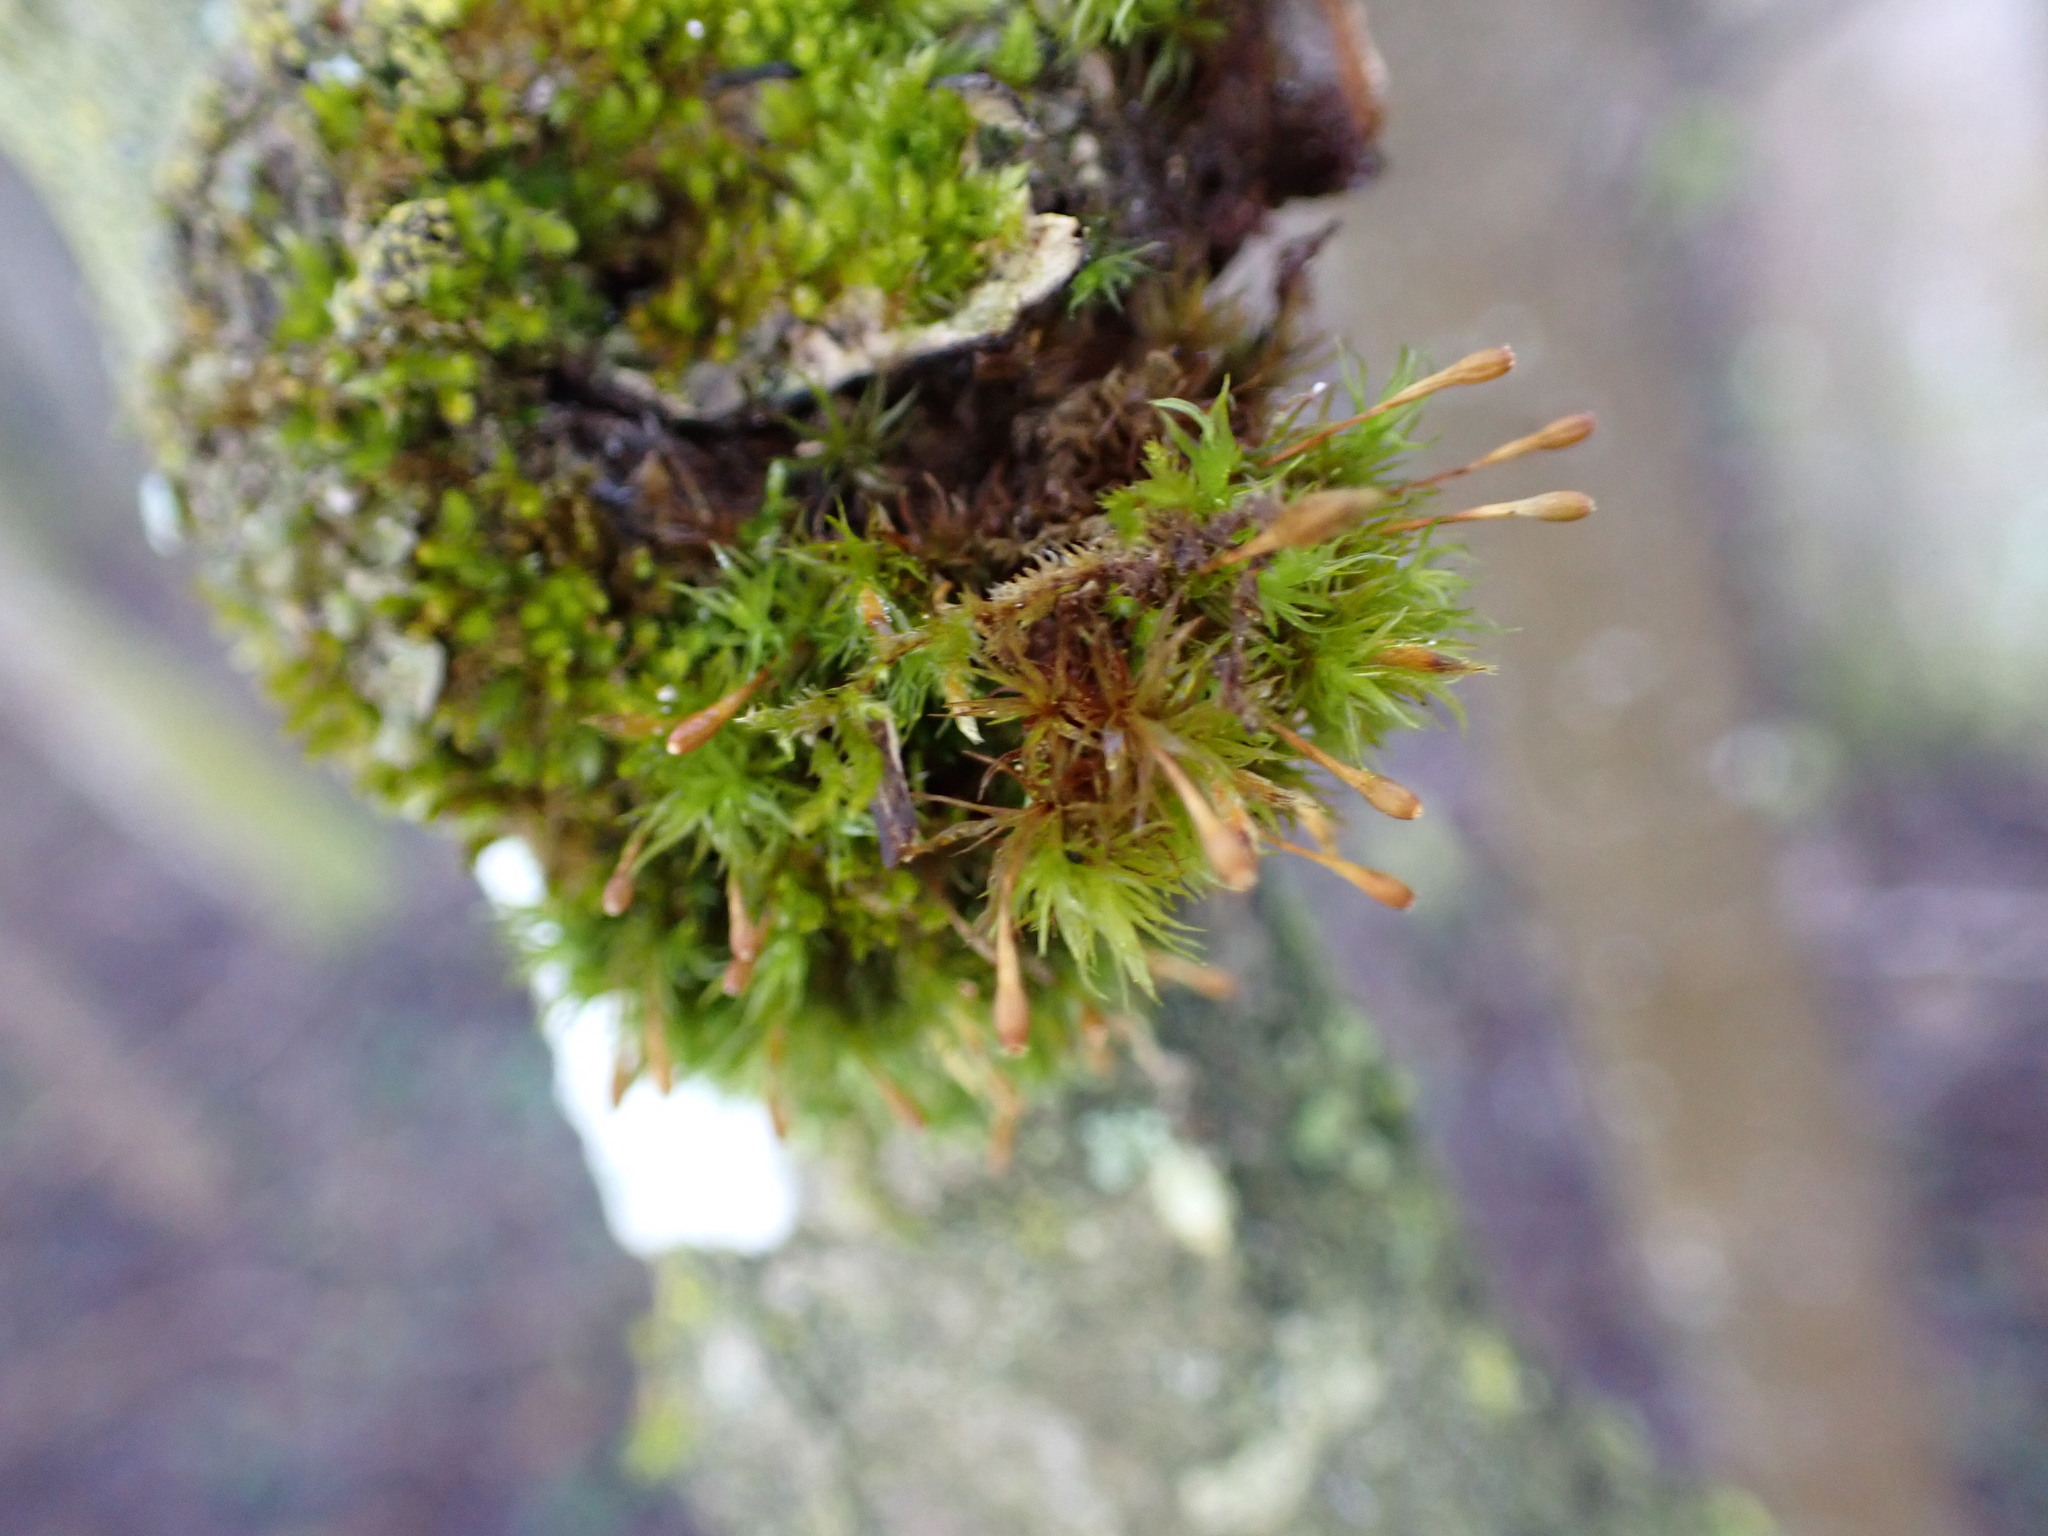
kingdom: Plantae
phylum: Bryophyta
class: Bryopsida
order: Orthotrichales
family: Orthotrichaceae
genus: Ulota
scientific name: Ulota bruchii
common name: Bruch's pincushion
